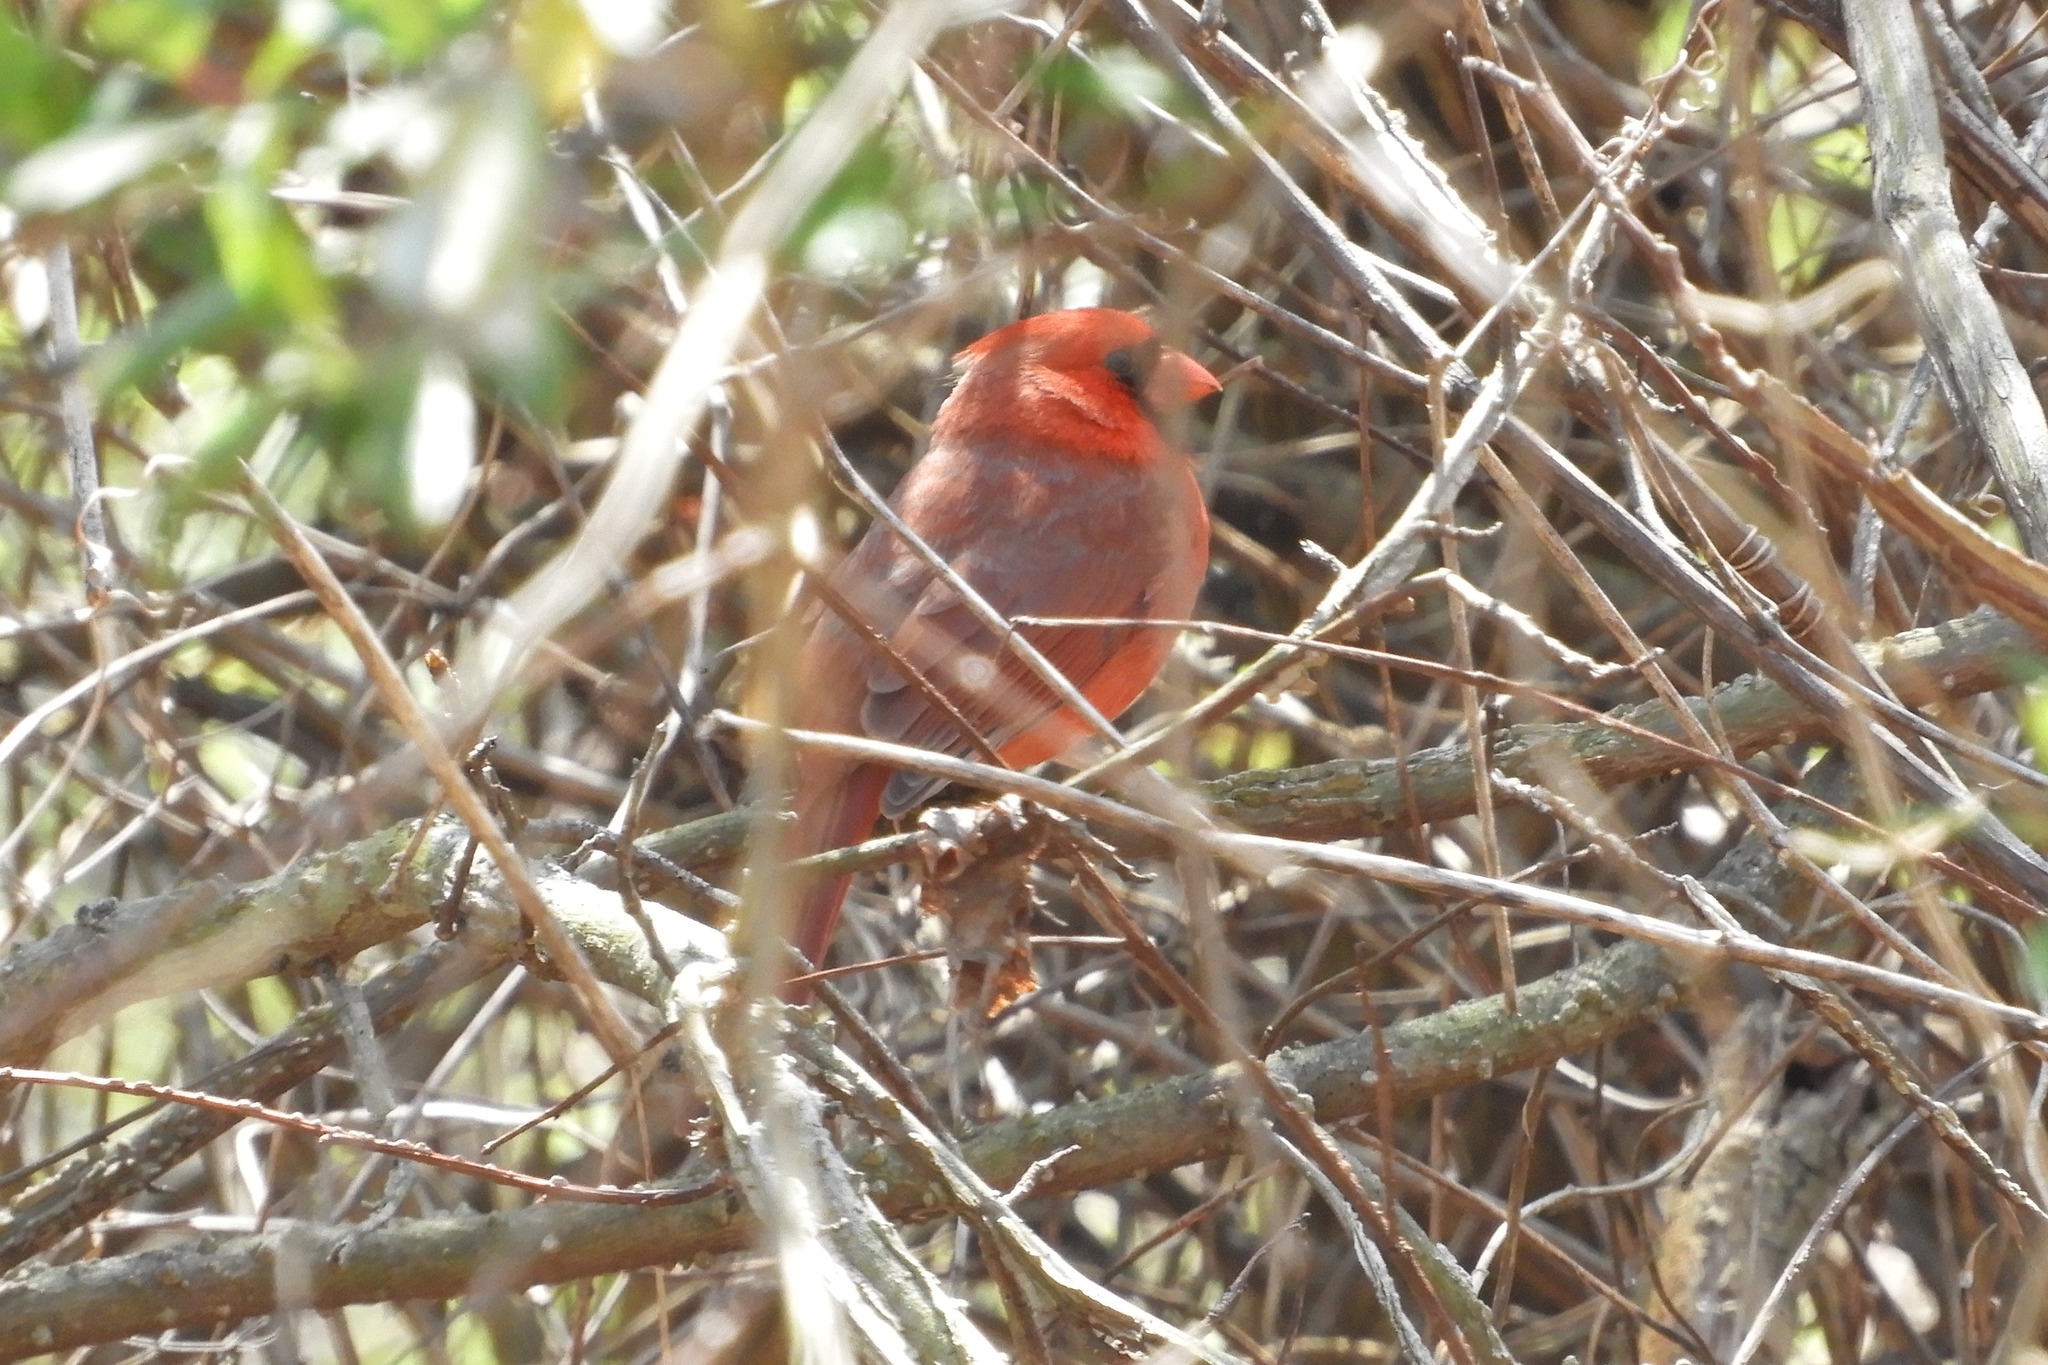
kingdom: Animalia
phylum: Chordata
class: Aves
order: Passeriformes
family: Cardinalidae
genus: Cardinalis
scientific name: Cardinalis cardinalis
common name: Northern cardinal
